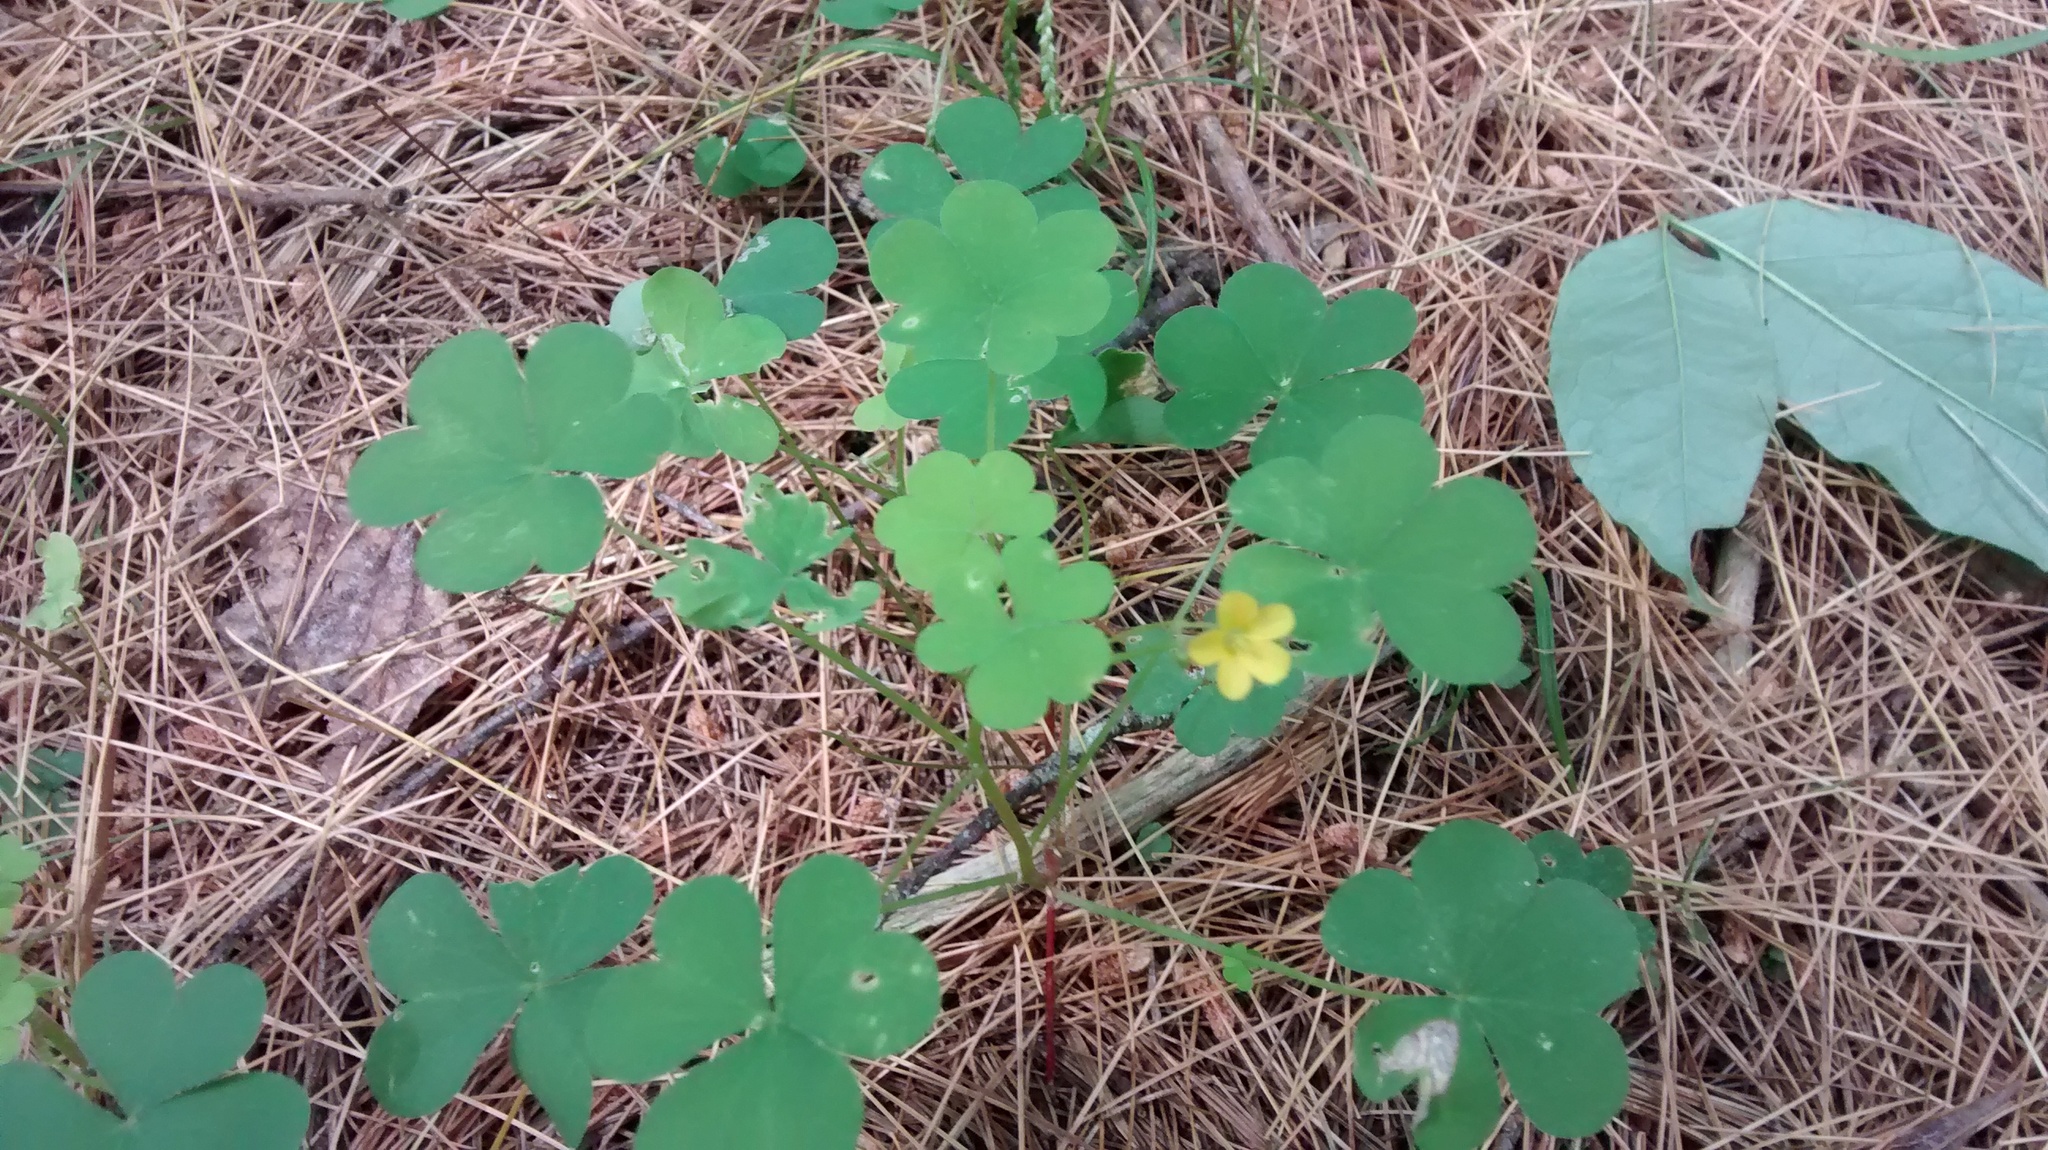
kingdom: Plantae
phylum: Tracheophyta
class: Magnoliopsida
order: Oxalidales
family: Oxalidaceae
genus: Oxalis
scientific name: Oxalis stricta
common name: Upright yellow-sorrel
